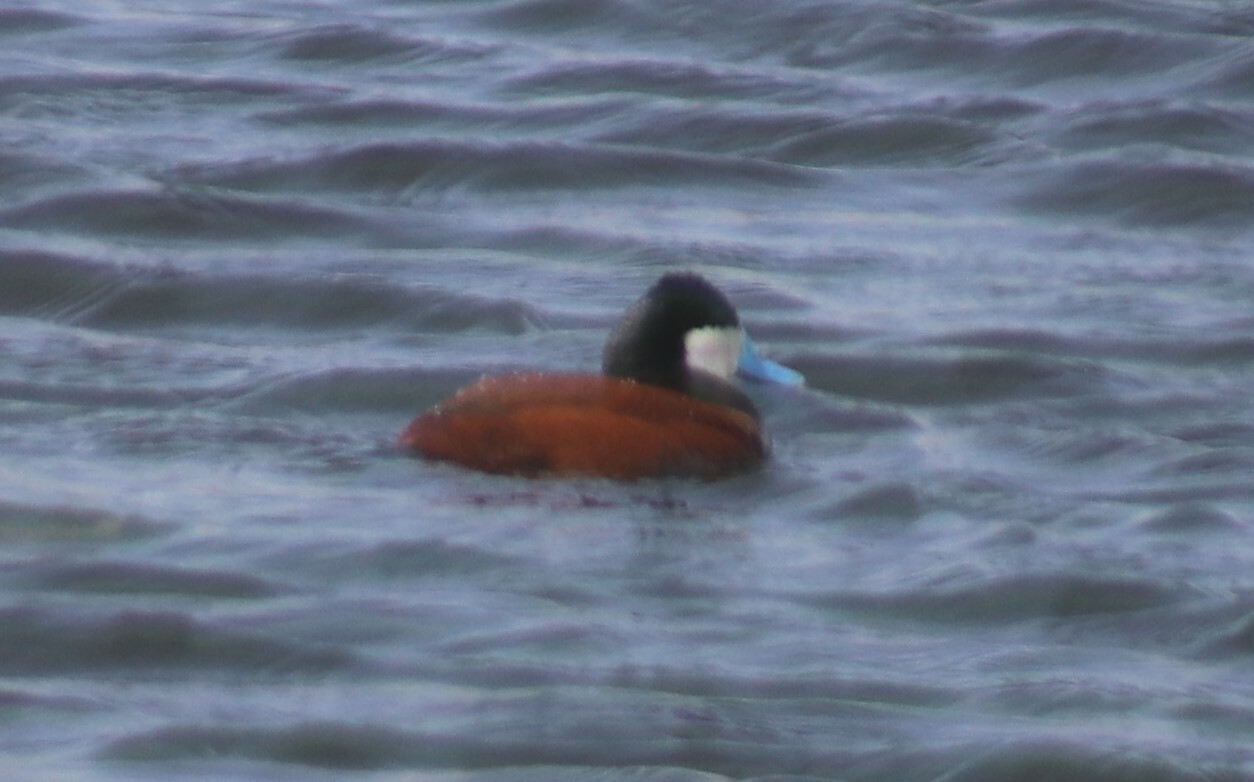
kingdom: Animalia
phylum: Chordata
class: Aves
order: Anseriformes
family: Anatidae
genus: Oxyura
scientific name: Oxyura jamaicensis
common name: Ruddy duck
